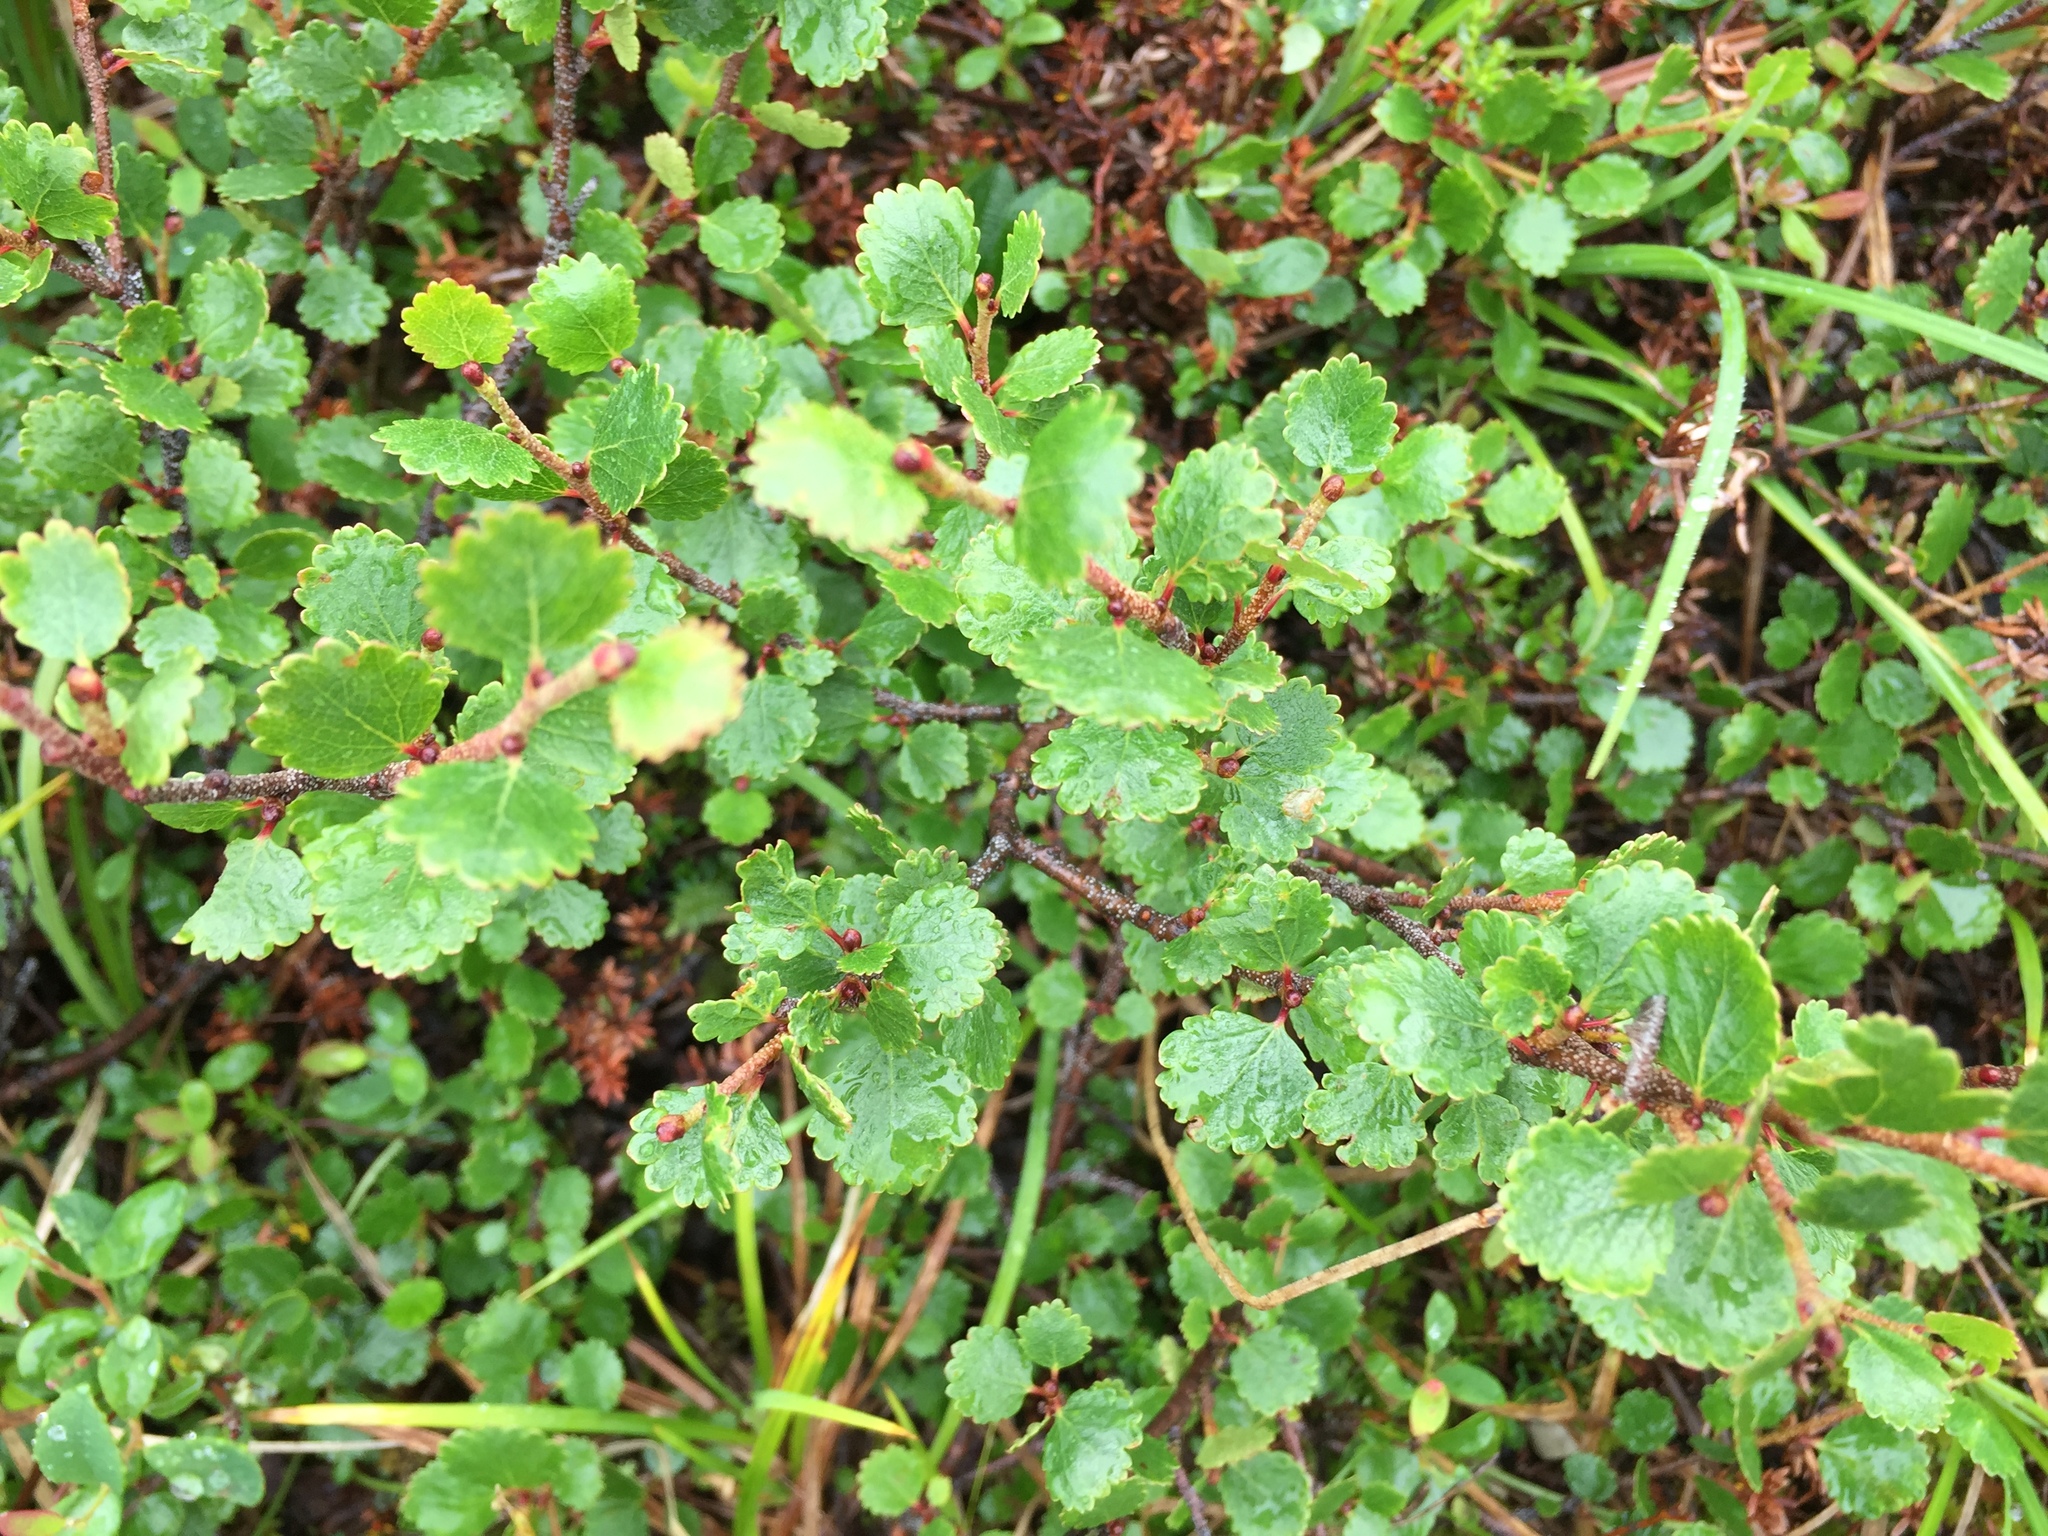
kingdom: Plantae
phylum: Tracheophyta
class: Magnoliopsida
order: Fagales
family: Betulaceae
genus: Betula
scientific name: Betula nana
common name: Arctic dwarf birch
